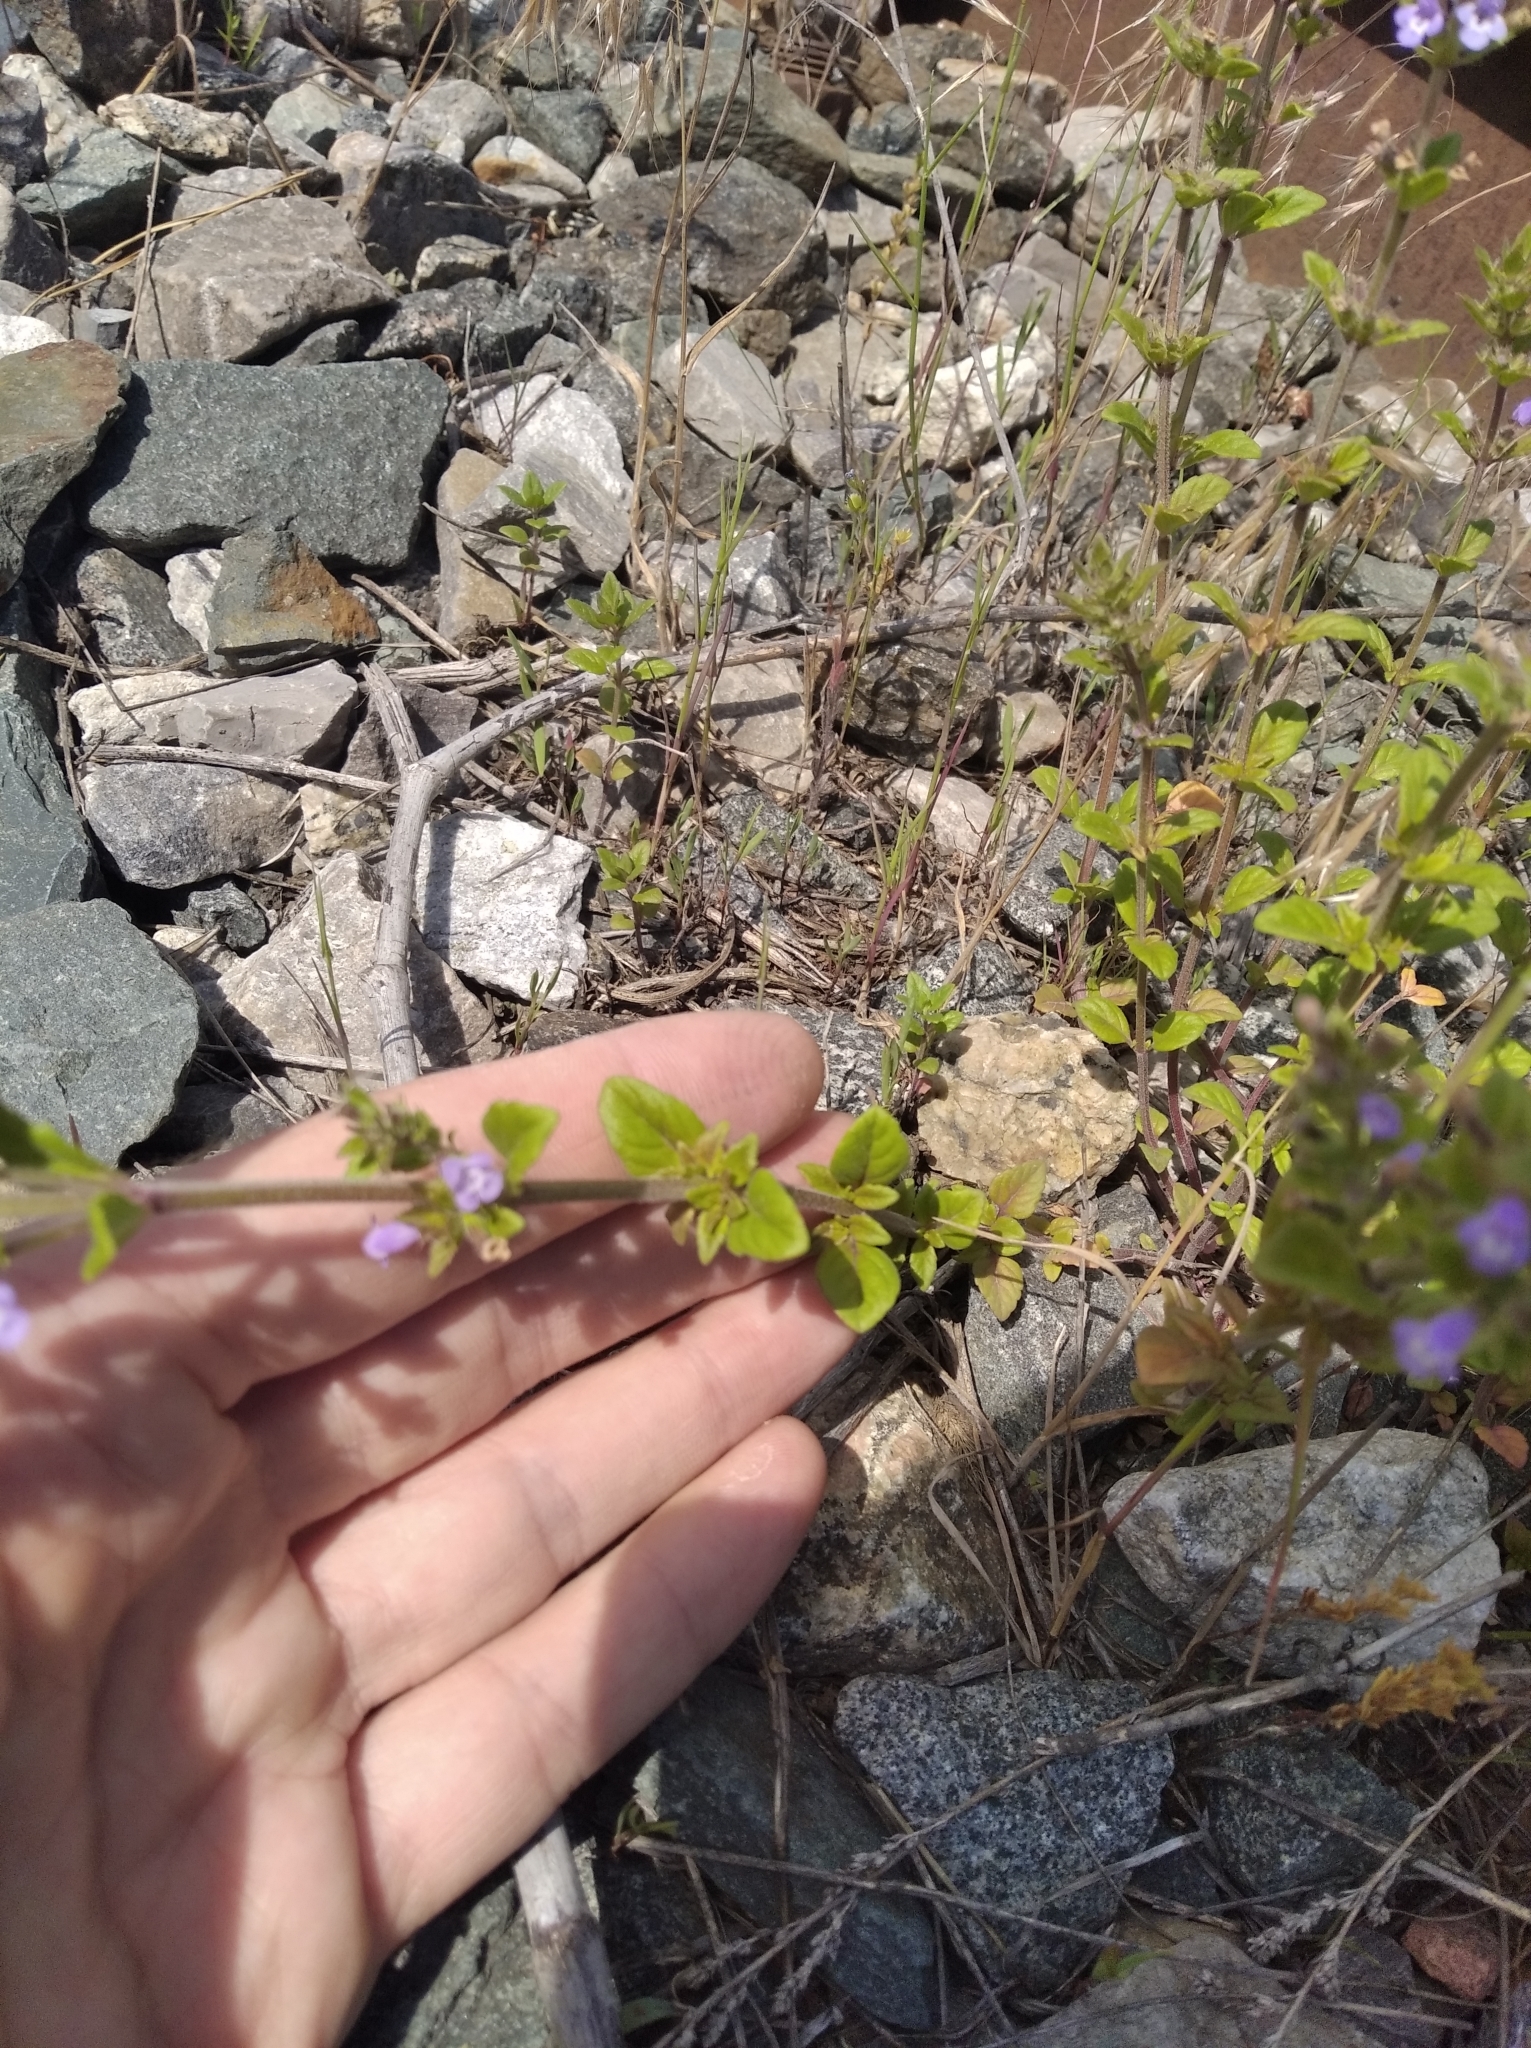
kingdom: Plantae
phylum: Tracheophyta
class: Magnoliopsida
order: Lamiales
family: Lamiaceae
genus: Clinopodium
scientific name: Clinopodium acinos
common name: Basil thyme
